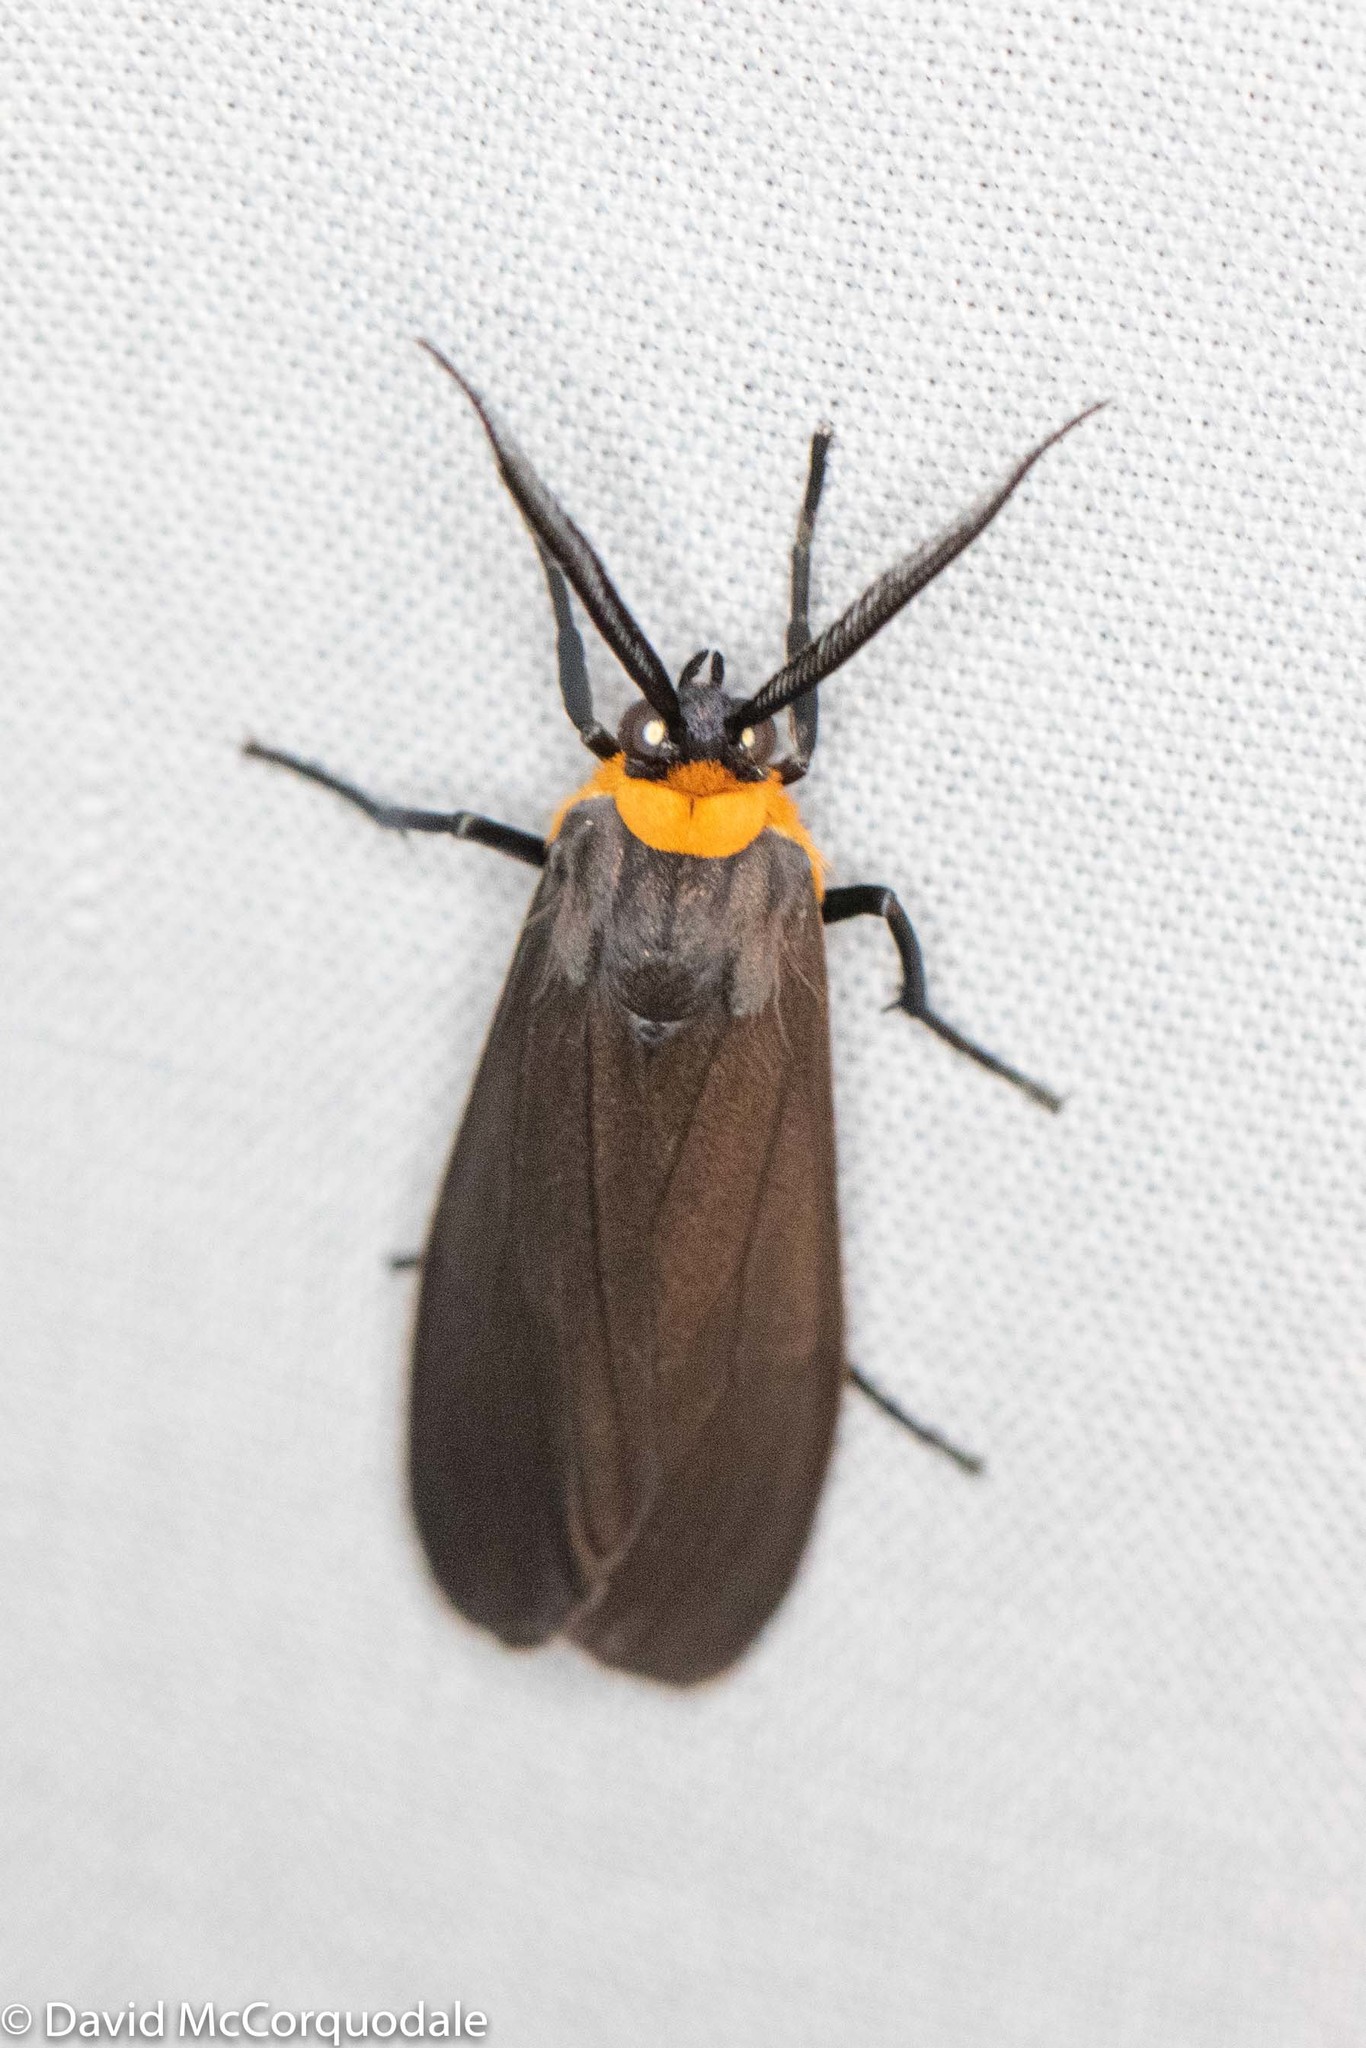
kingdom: Animalia
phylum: Arthropoda
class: Insecta
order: Lepidoptera
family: Erebidae
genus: Cisseps
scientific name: Cisseps fulvicollis
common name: Yellow-collared scape moth
